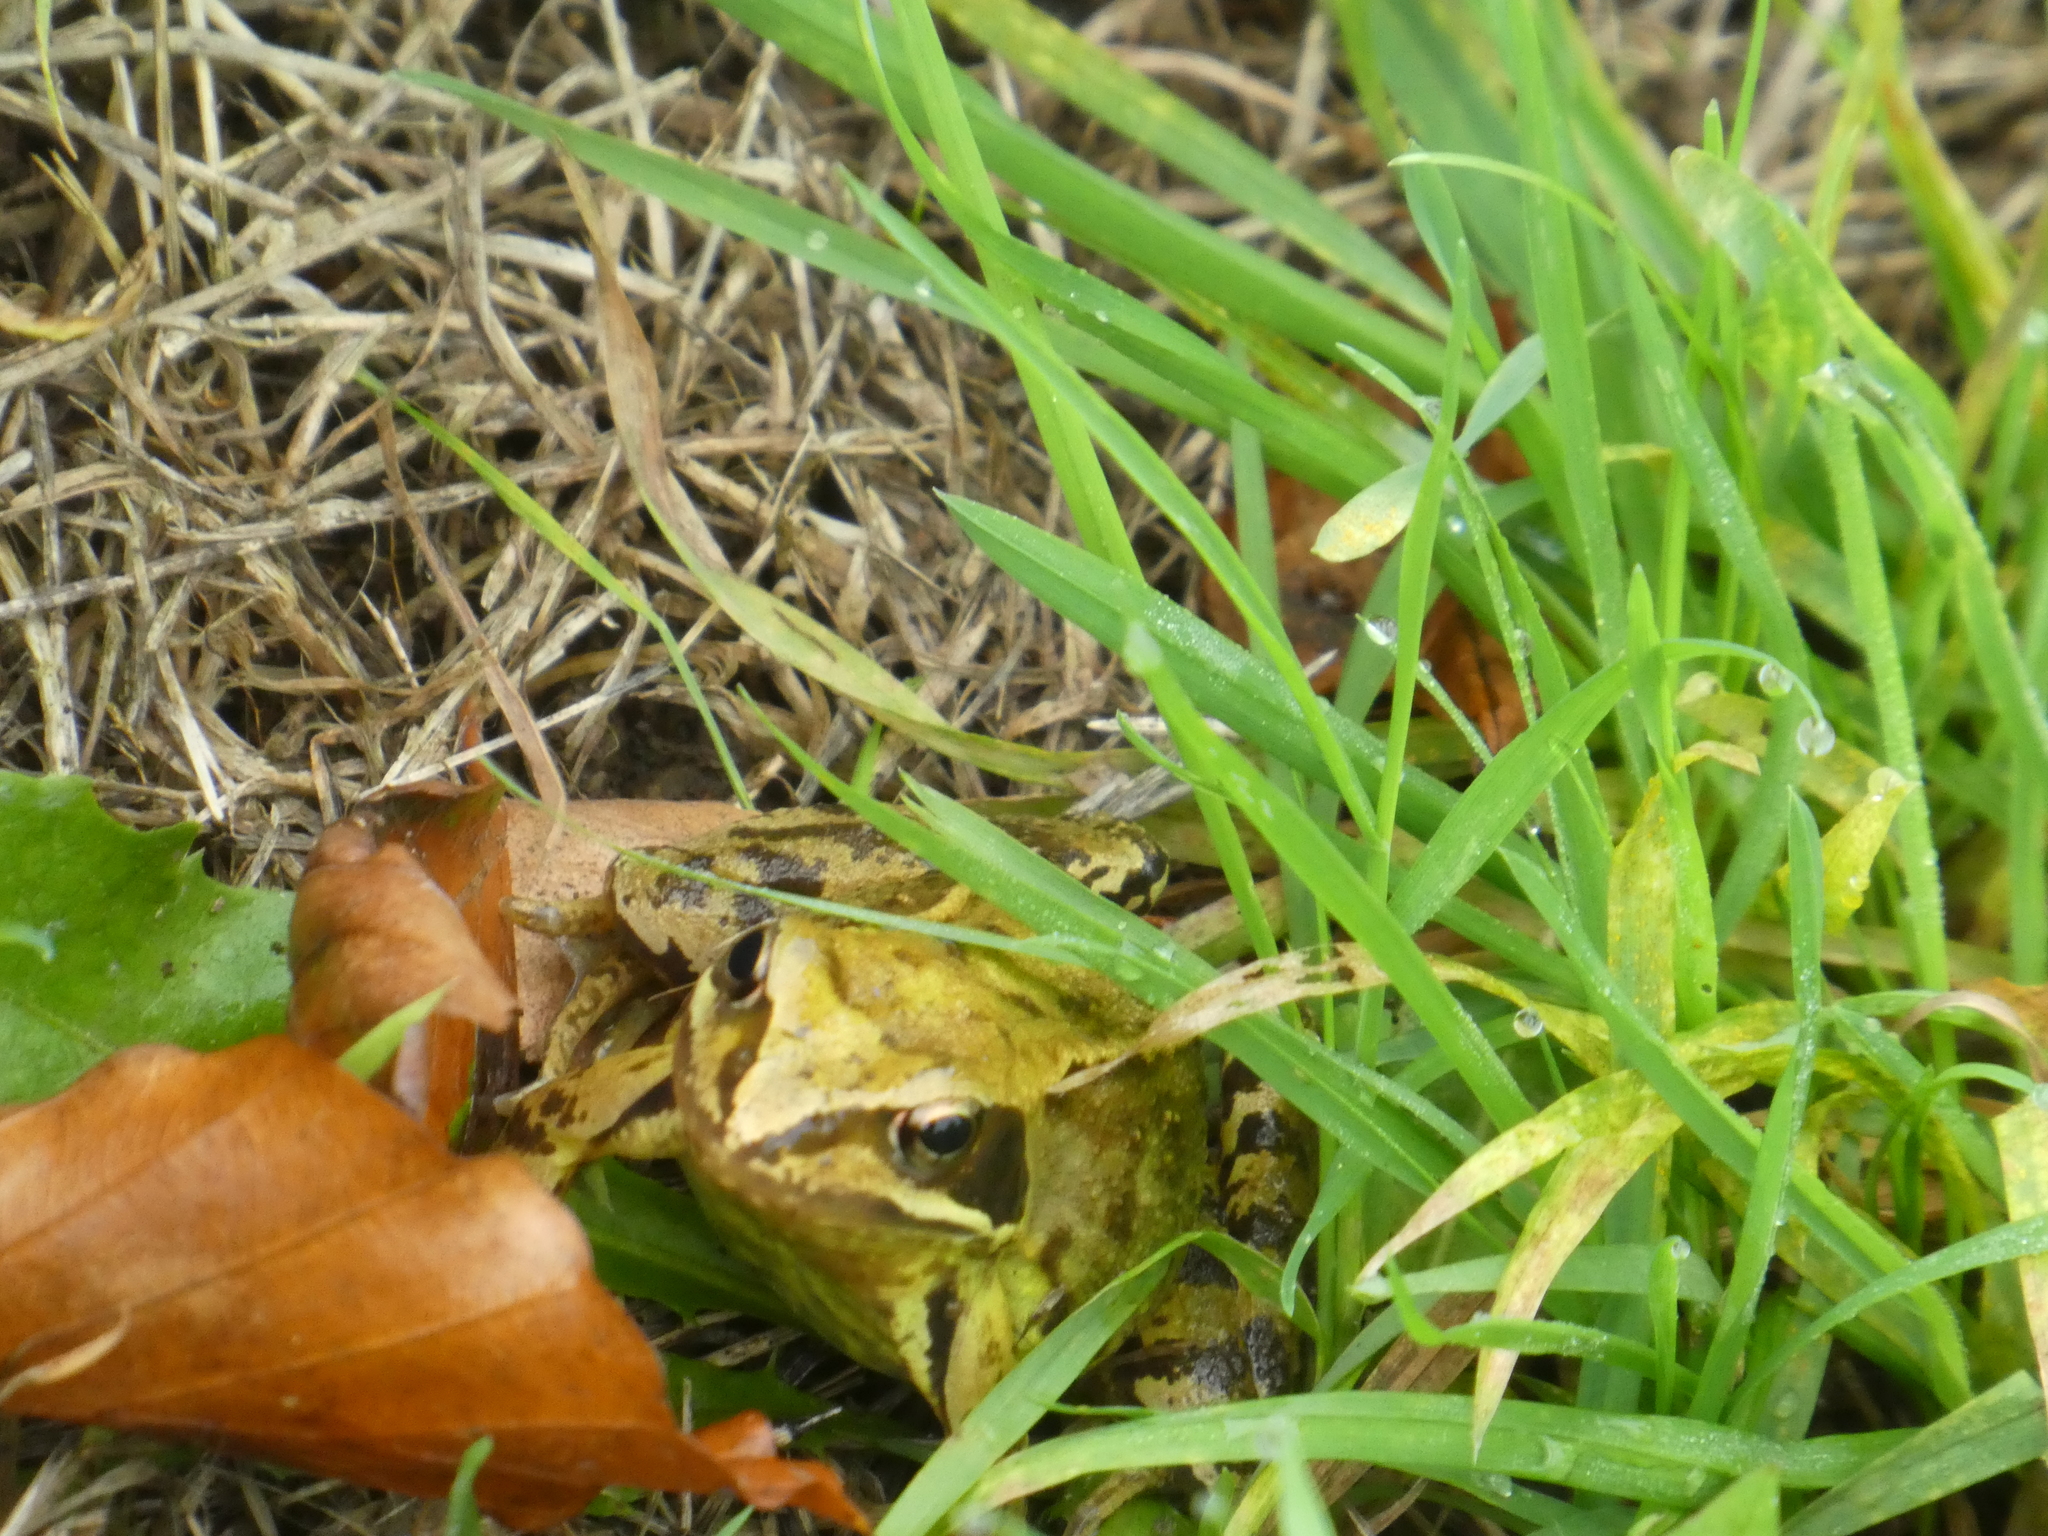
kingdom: Animalia
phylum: Chordata
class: Amphibia
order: Anura
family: Ranidae
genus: Rana
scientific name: Rana temporaria
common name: Common frog
